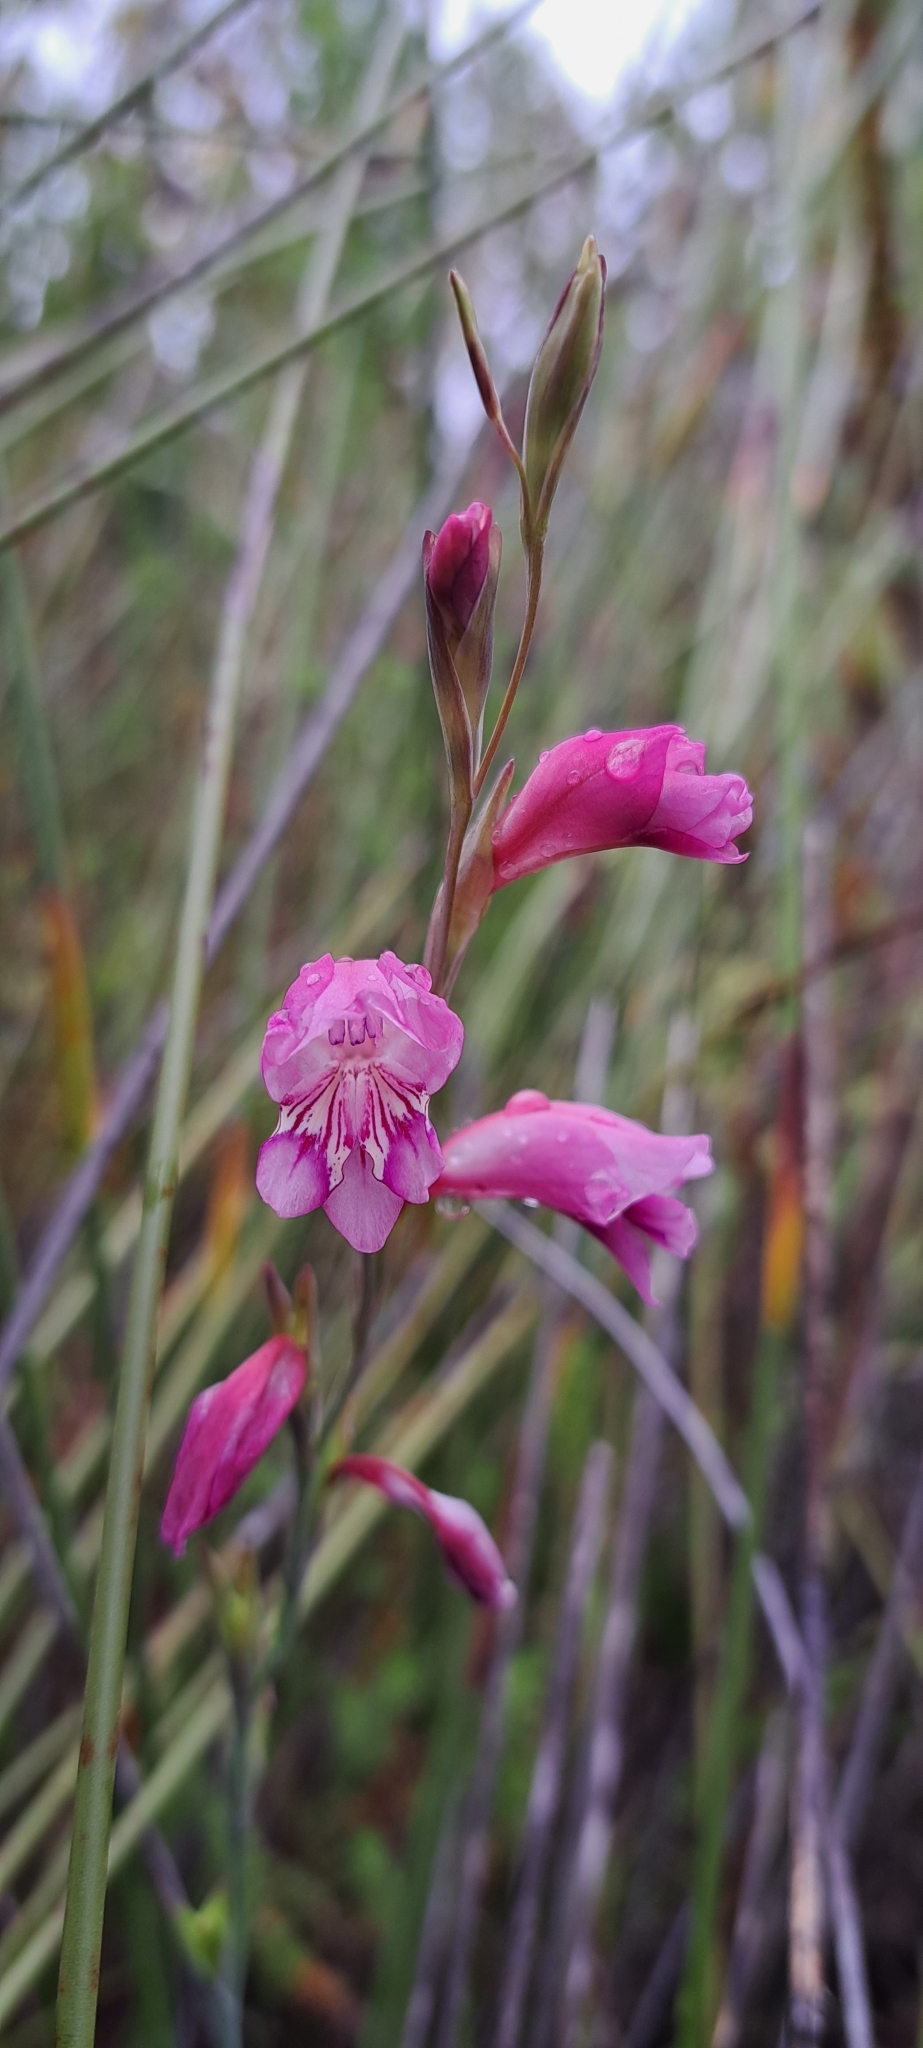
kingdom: Plantae
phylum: Tracheophyta
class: Liliopsida
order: Asparagales
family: Iridaceae
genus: Gladiolus
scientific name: Gladiolus brevifolius
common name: March pypie
